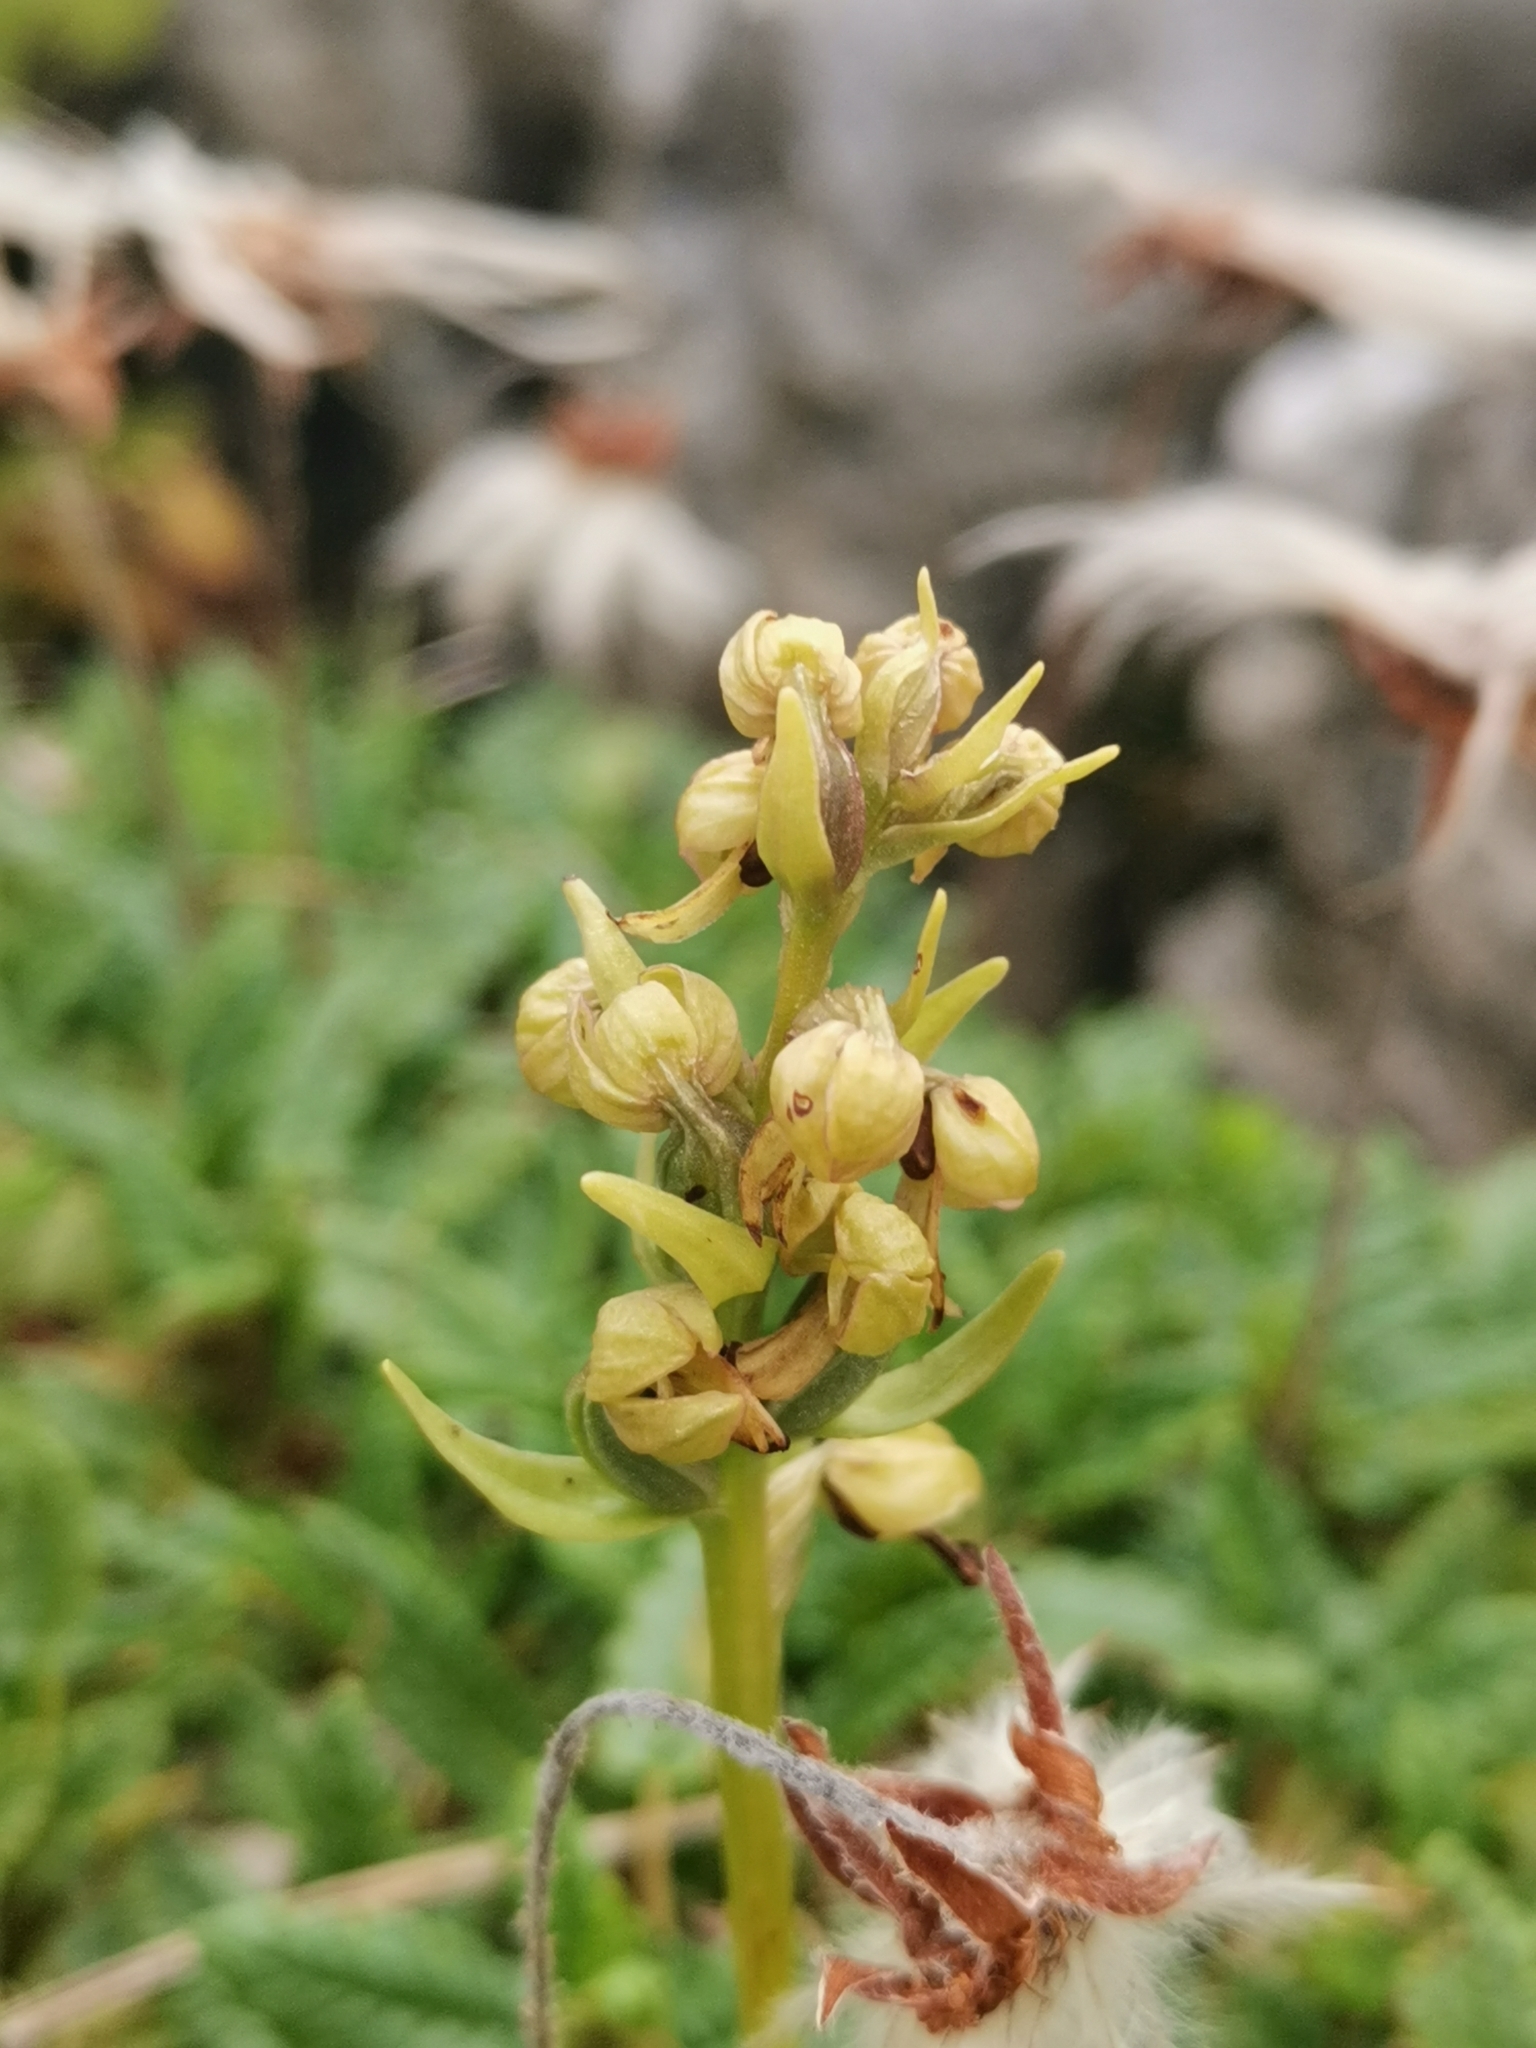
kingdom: Plantae
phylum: Tracheophyta
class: Liliopsida
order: Asparagales
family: Orchidaceae
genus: Dactylorhiza
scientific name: Dactylorhiza viridis
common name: Longbract frog orchid
